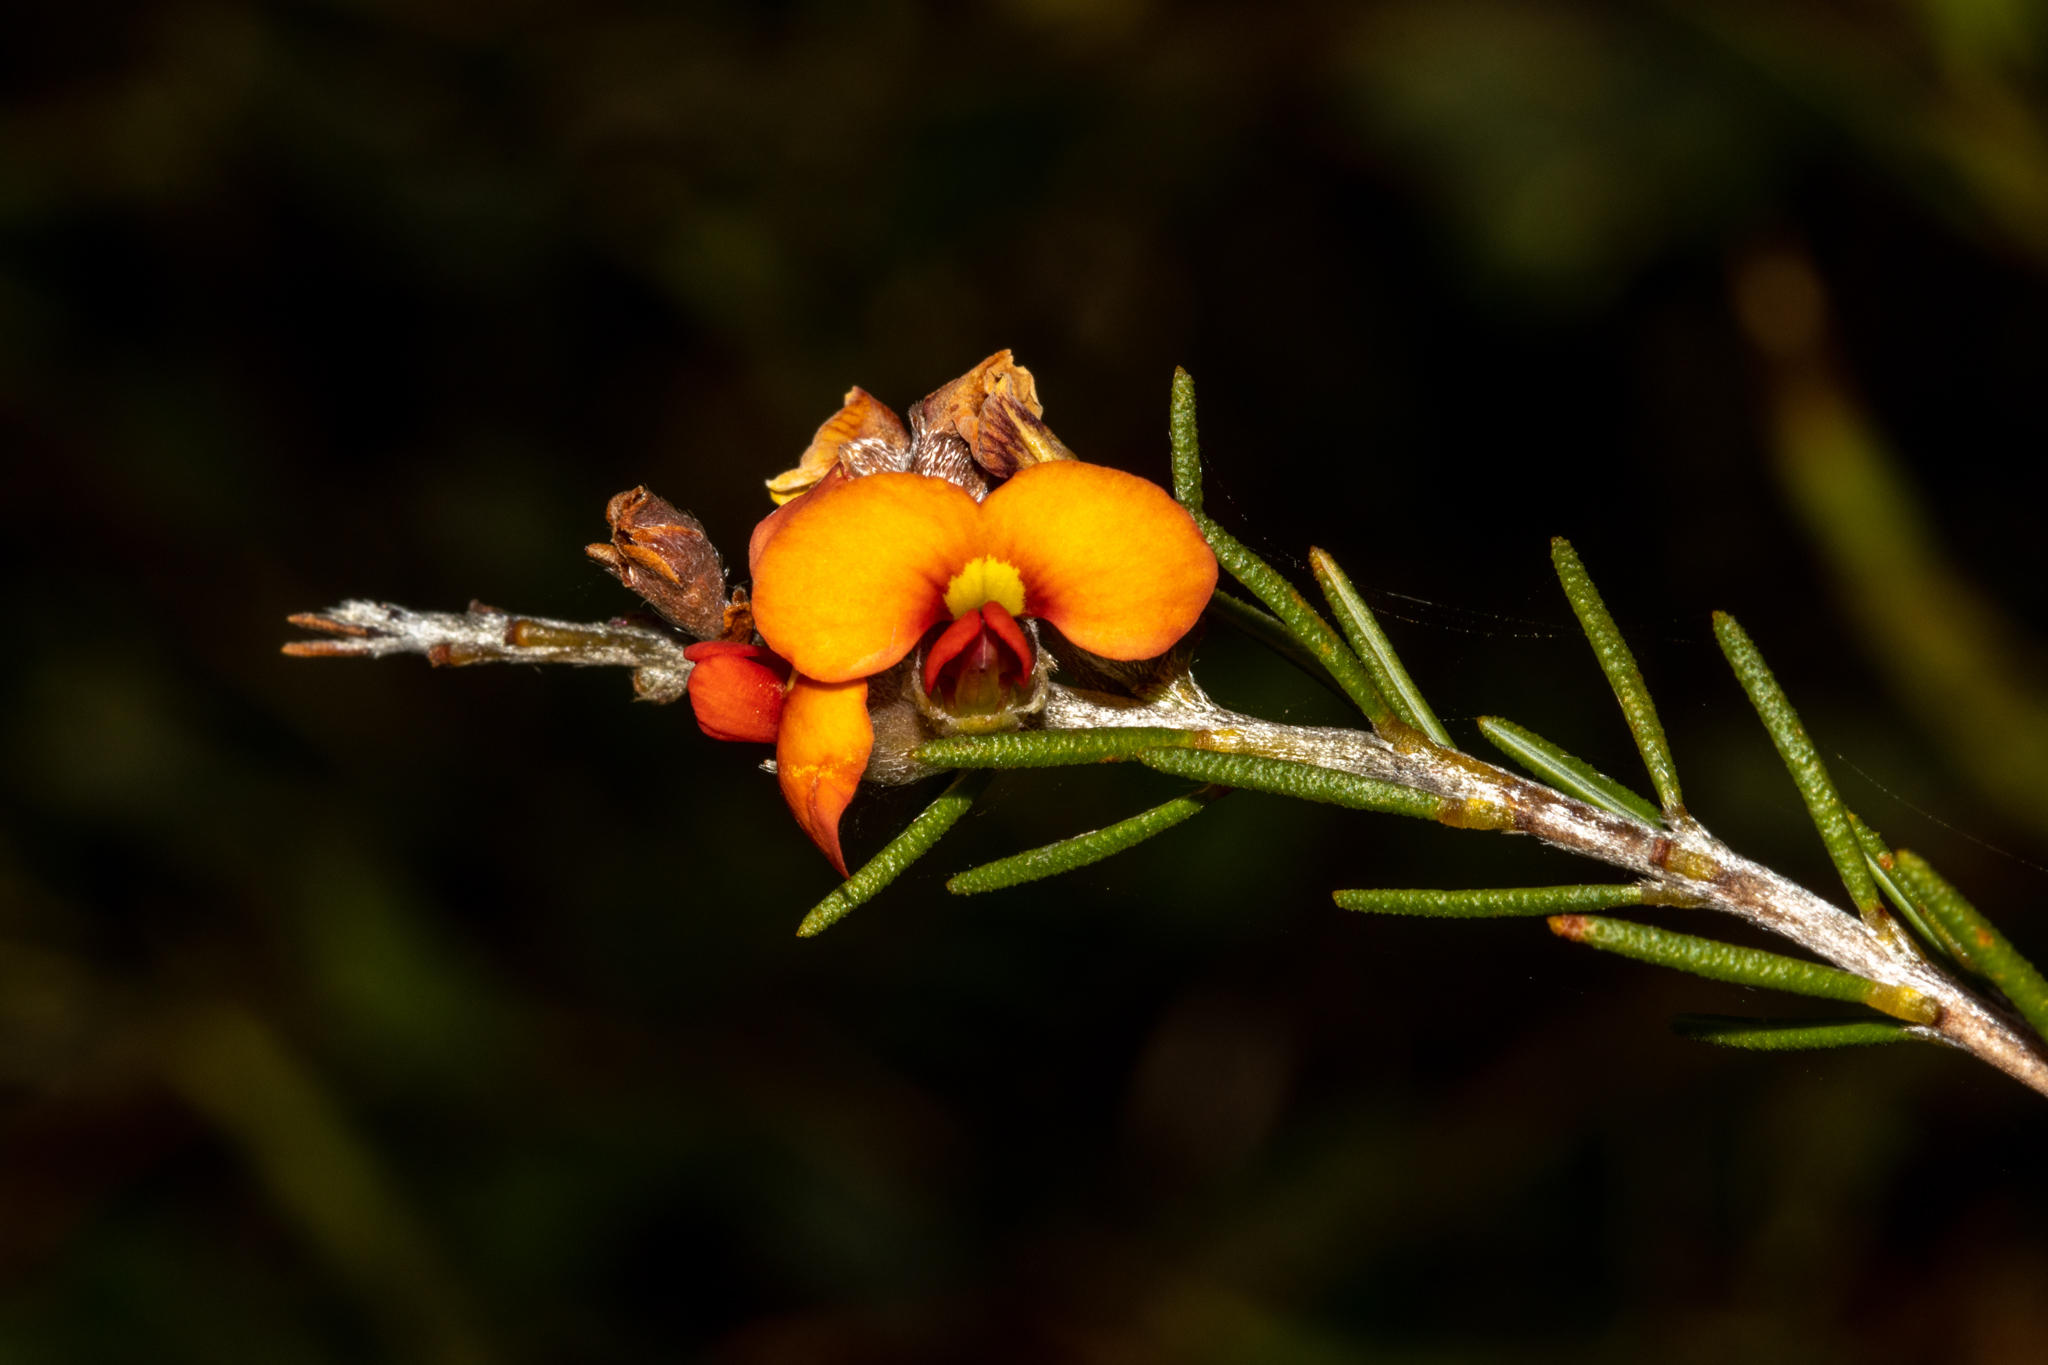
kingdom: Plantae
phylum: Tracheophyta
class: Magnoliopsida
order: Fabales
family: Fabaceae
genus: Dillwynia
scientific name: Dillwynia sericea
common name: Showy parrot-pea
